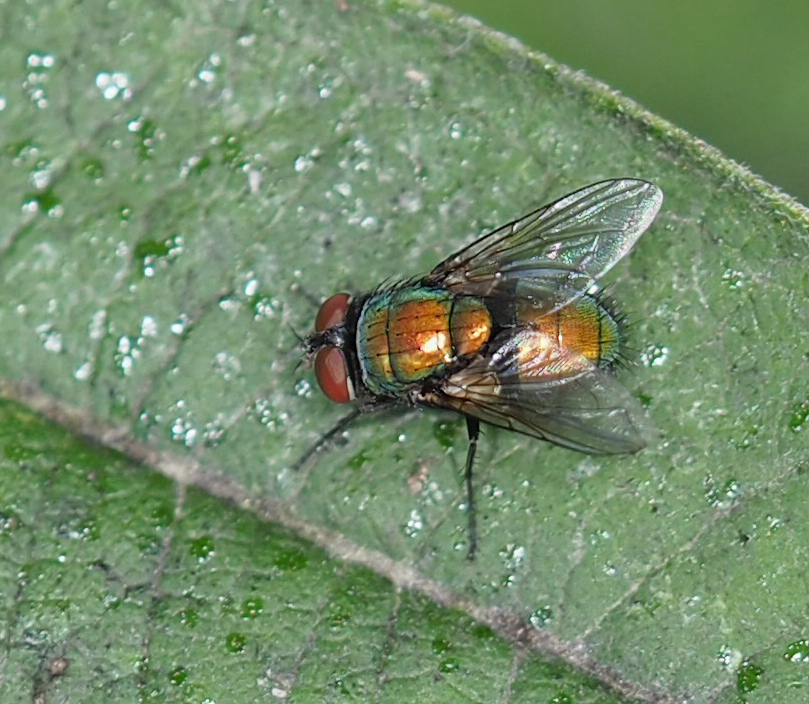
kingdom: Animalia
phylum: Arthropoda
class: Insecta
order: Diptera
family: Calliphoridae
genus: Lucilia
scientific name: Lucilia sericata
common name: Blow fly
